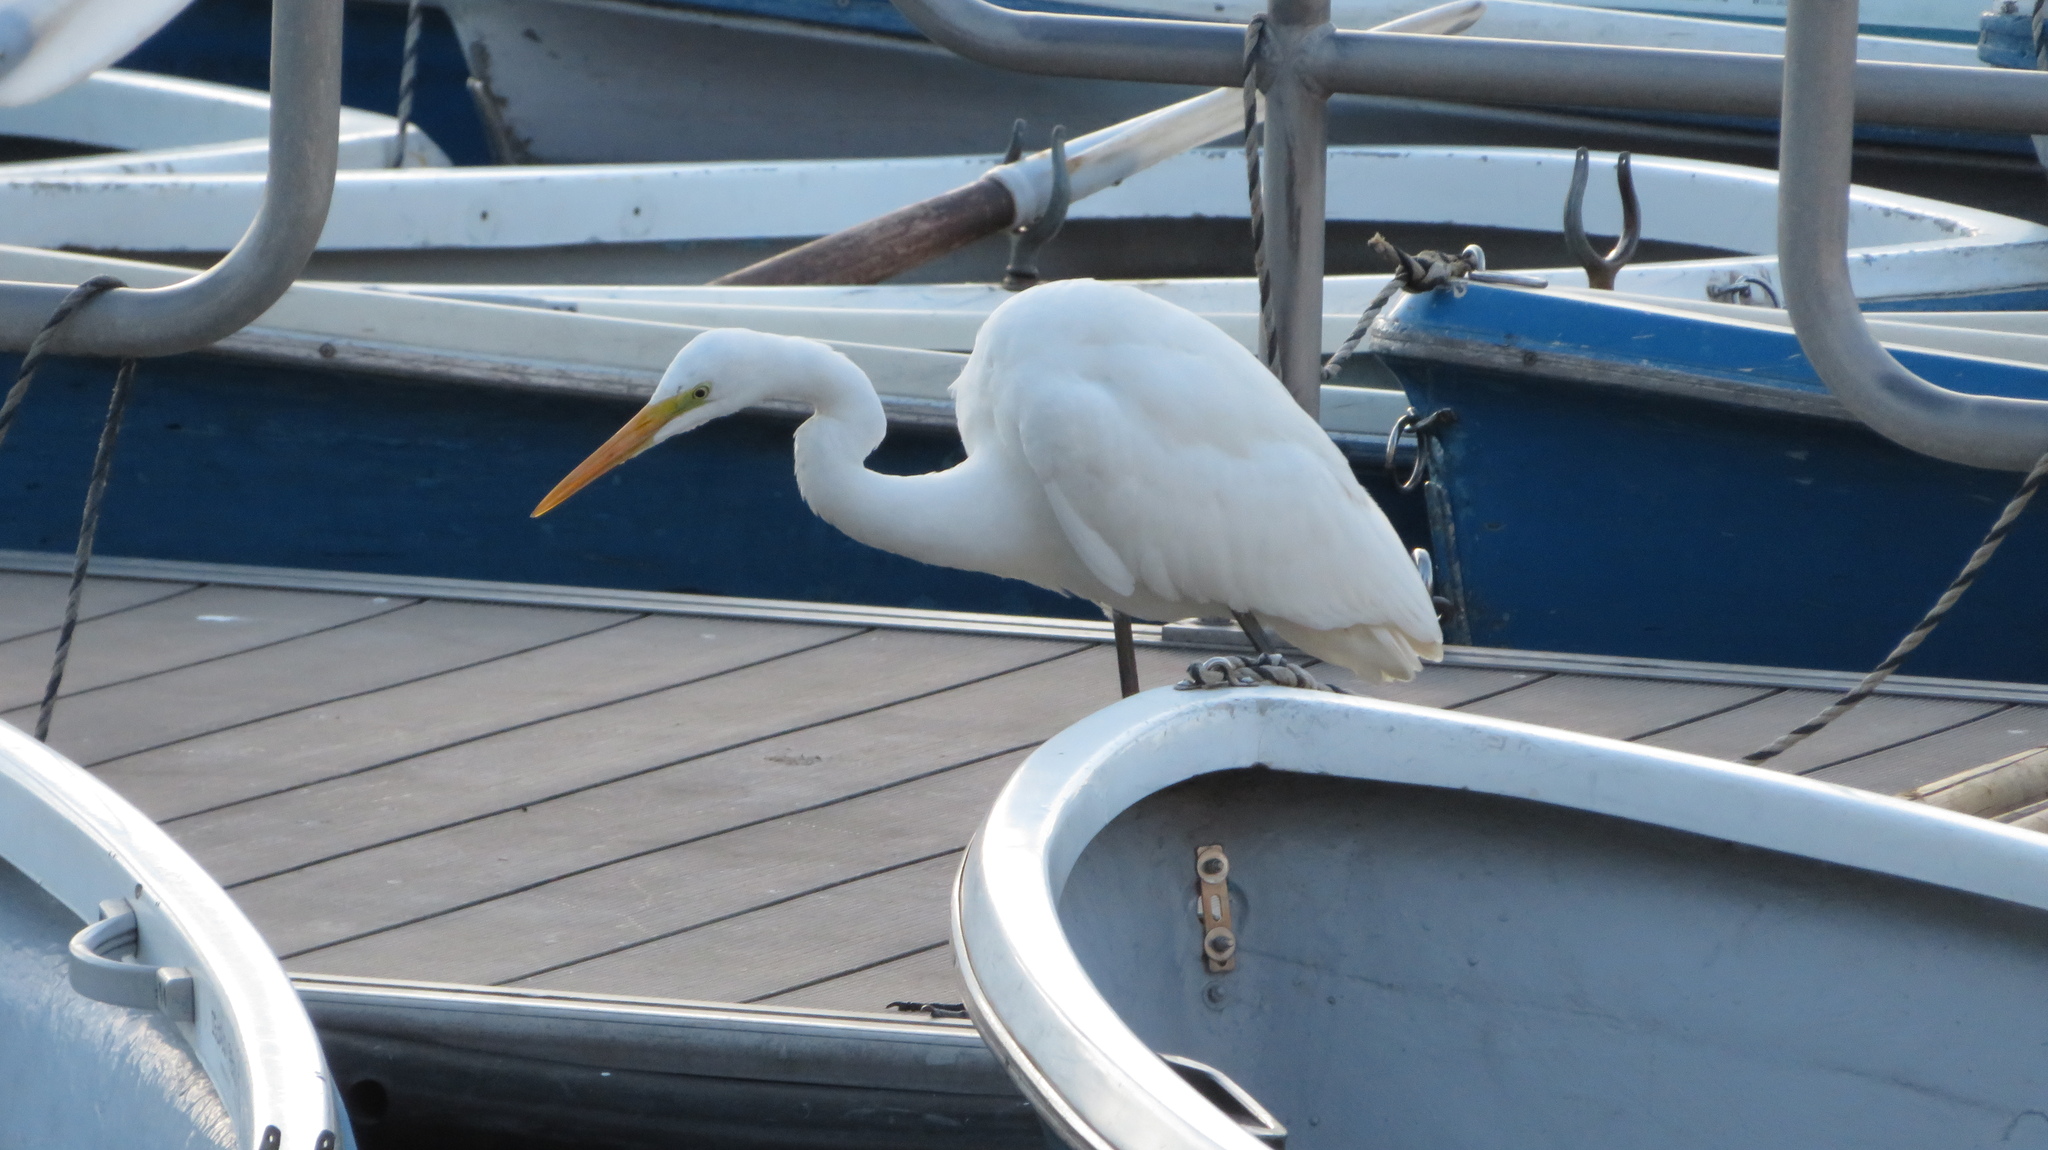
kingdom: Animalia
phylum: Chordata
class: Aves
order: Pelecaniformes
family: Ardeidae
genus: Ardea
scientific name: Ardea alba
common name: Great egret
